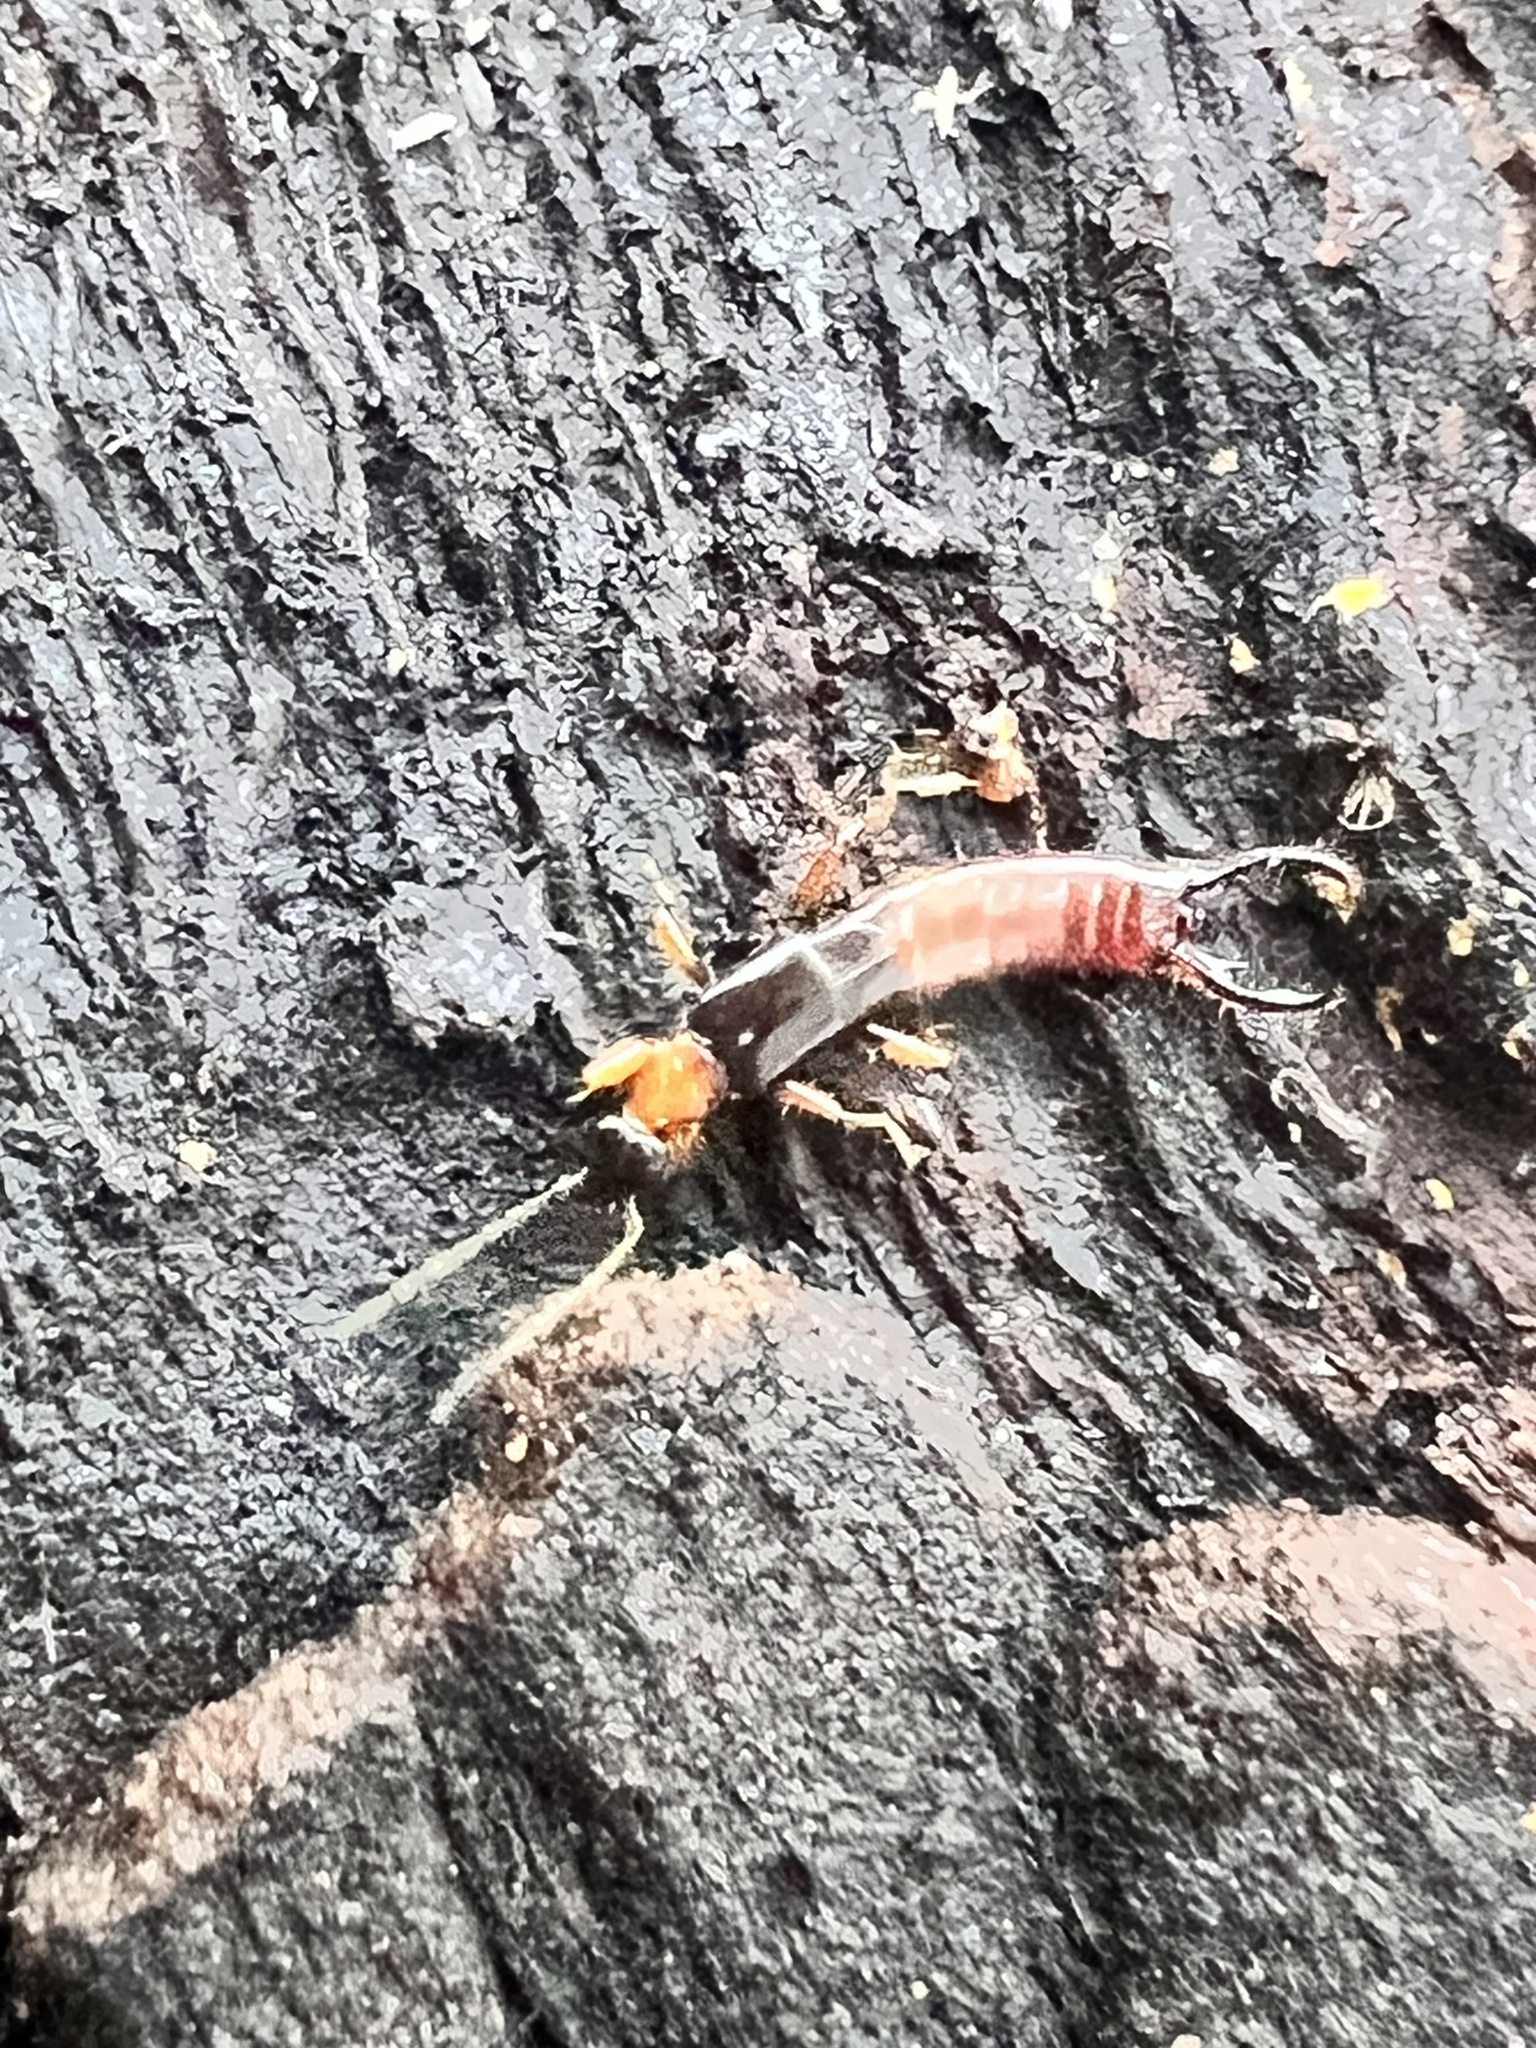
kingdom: Animalia
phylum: Arthropoda
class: Insecta
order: Dermaptera
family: Spongiphoridae
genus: Paraspania
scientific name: Paraspania pygmaea
